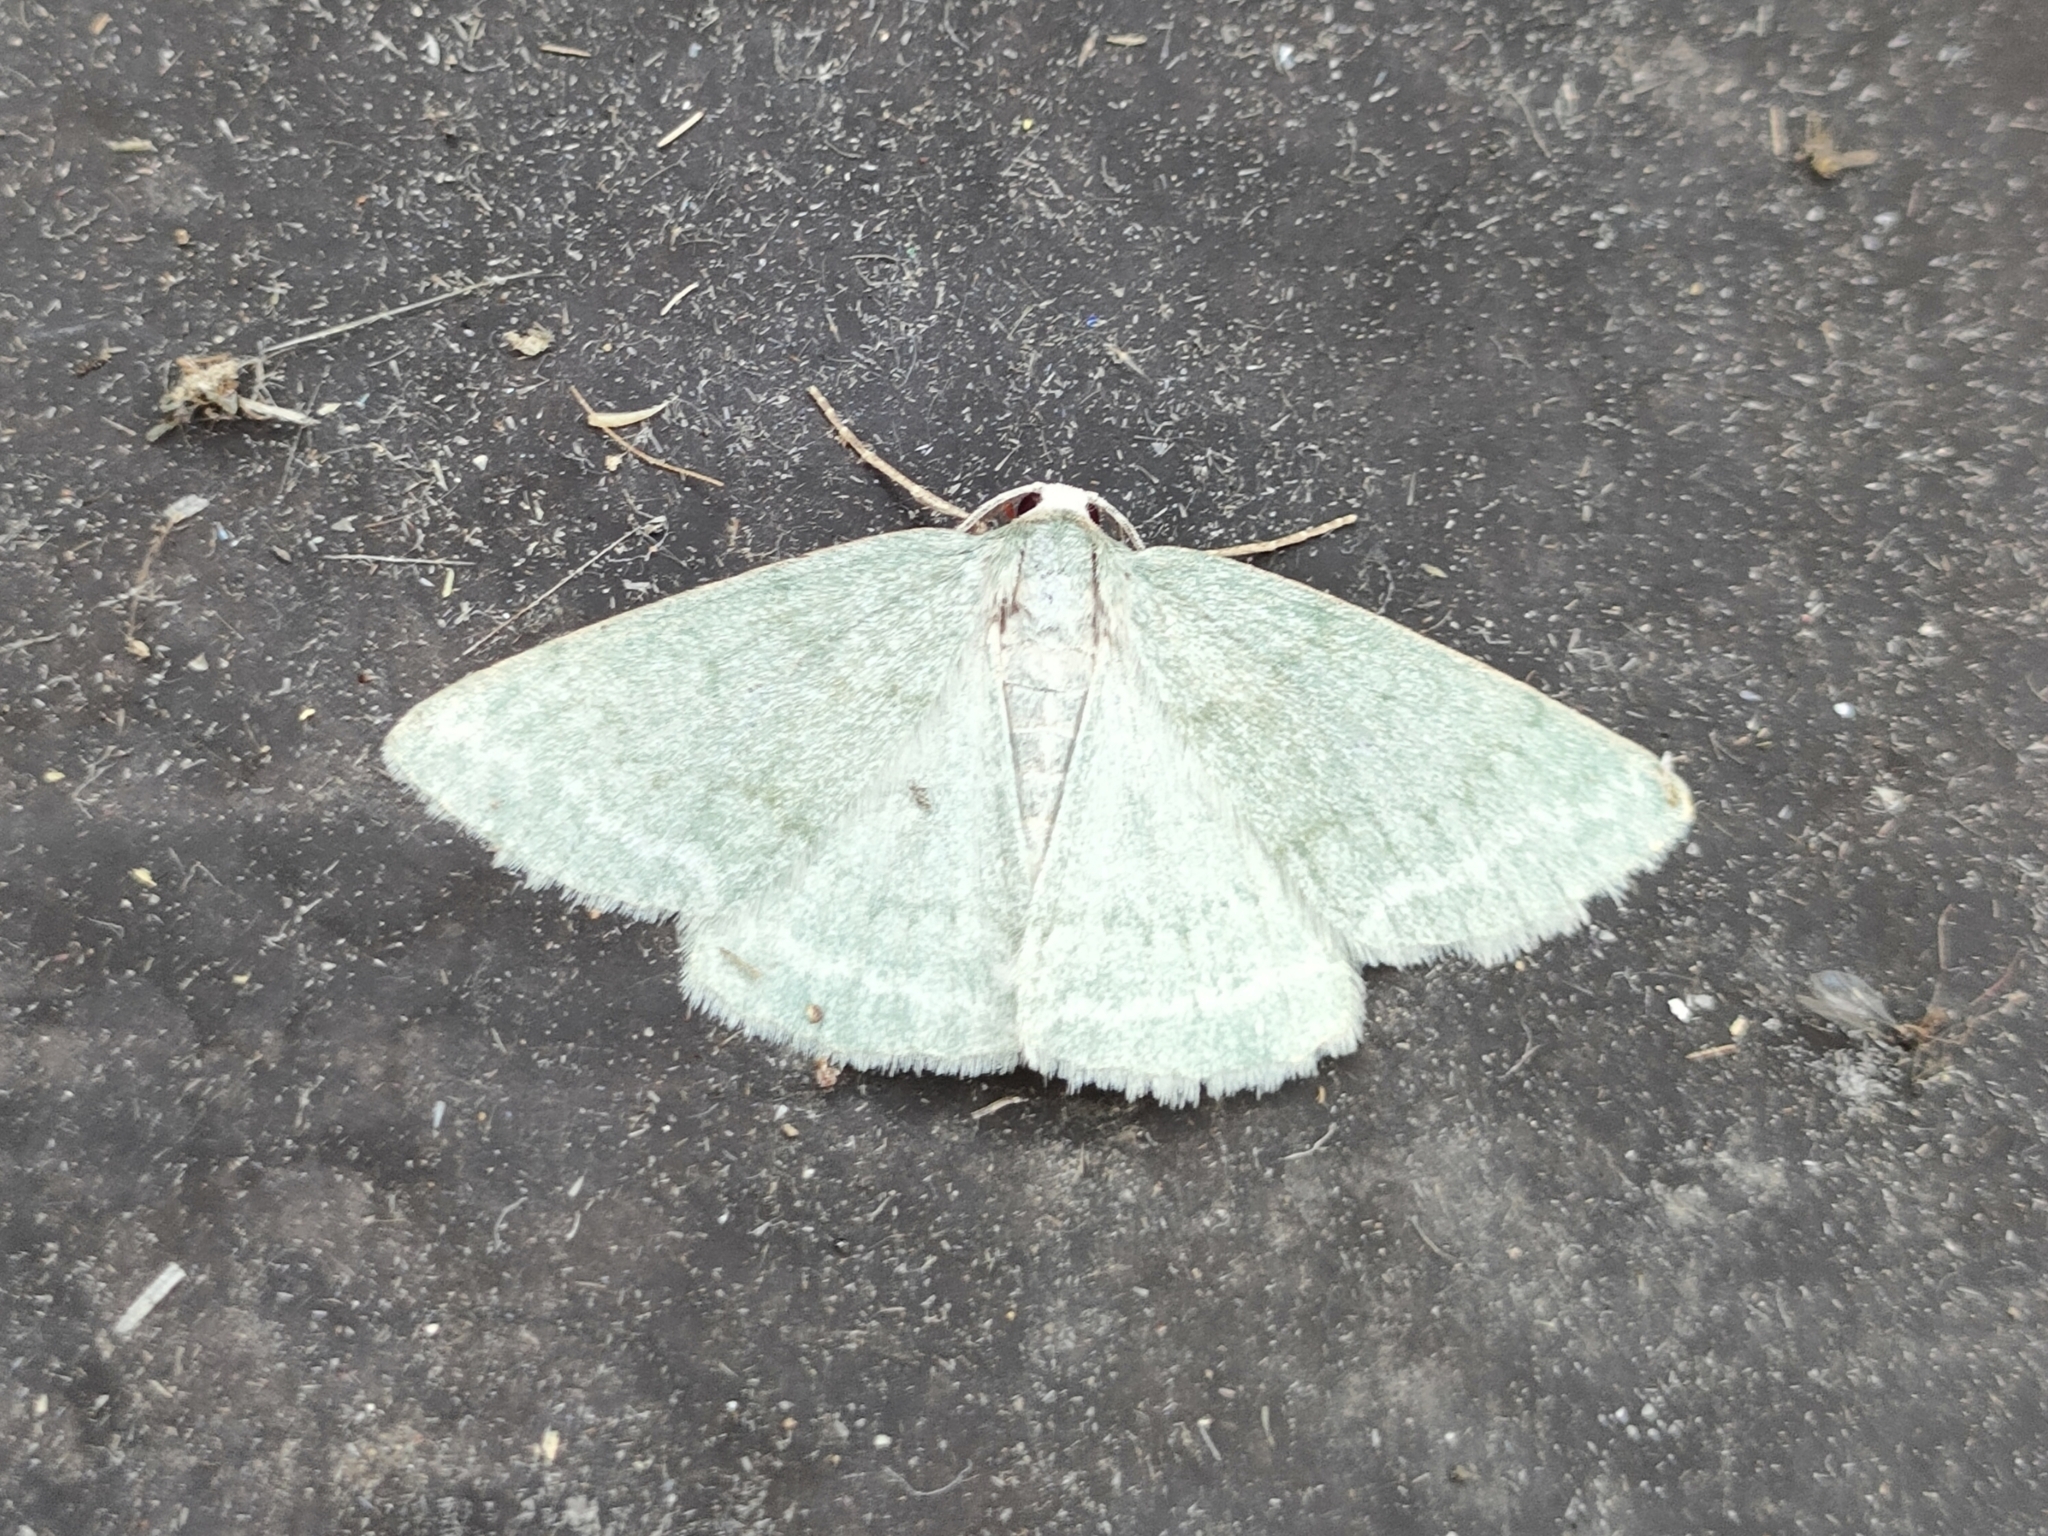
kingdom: Animalia
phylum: Arthropoda
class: Insecta
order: Lepidoptera
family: Geometridae
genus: Pseudoterpna
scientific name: Pseudoterpna pruinata
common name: Grass emerald
